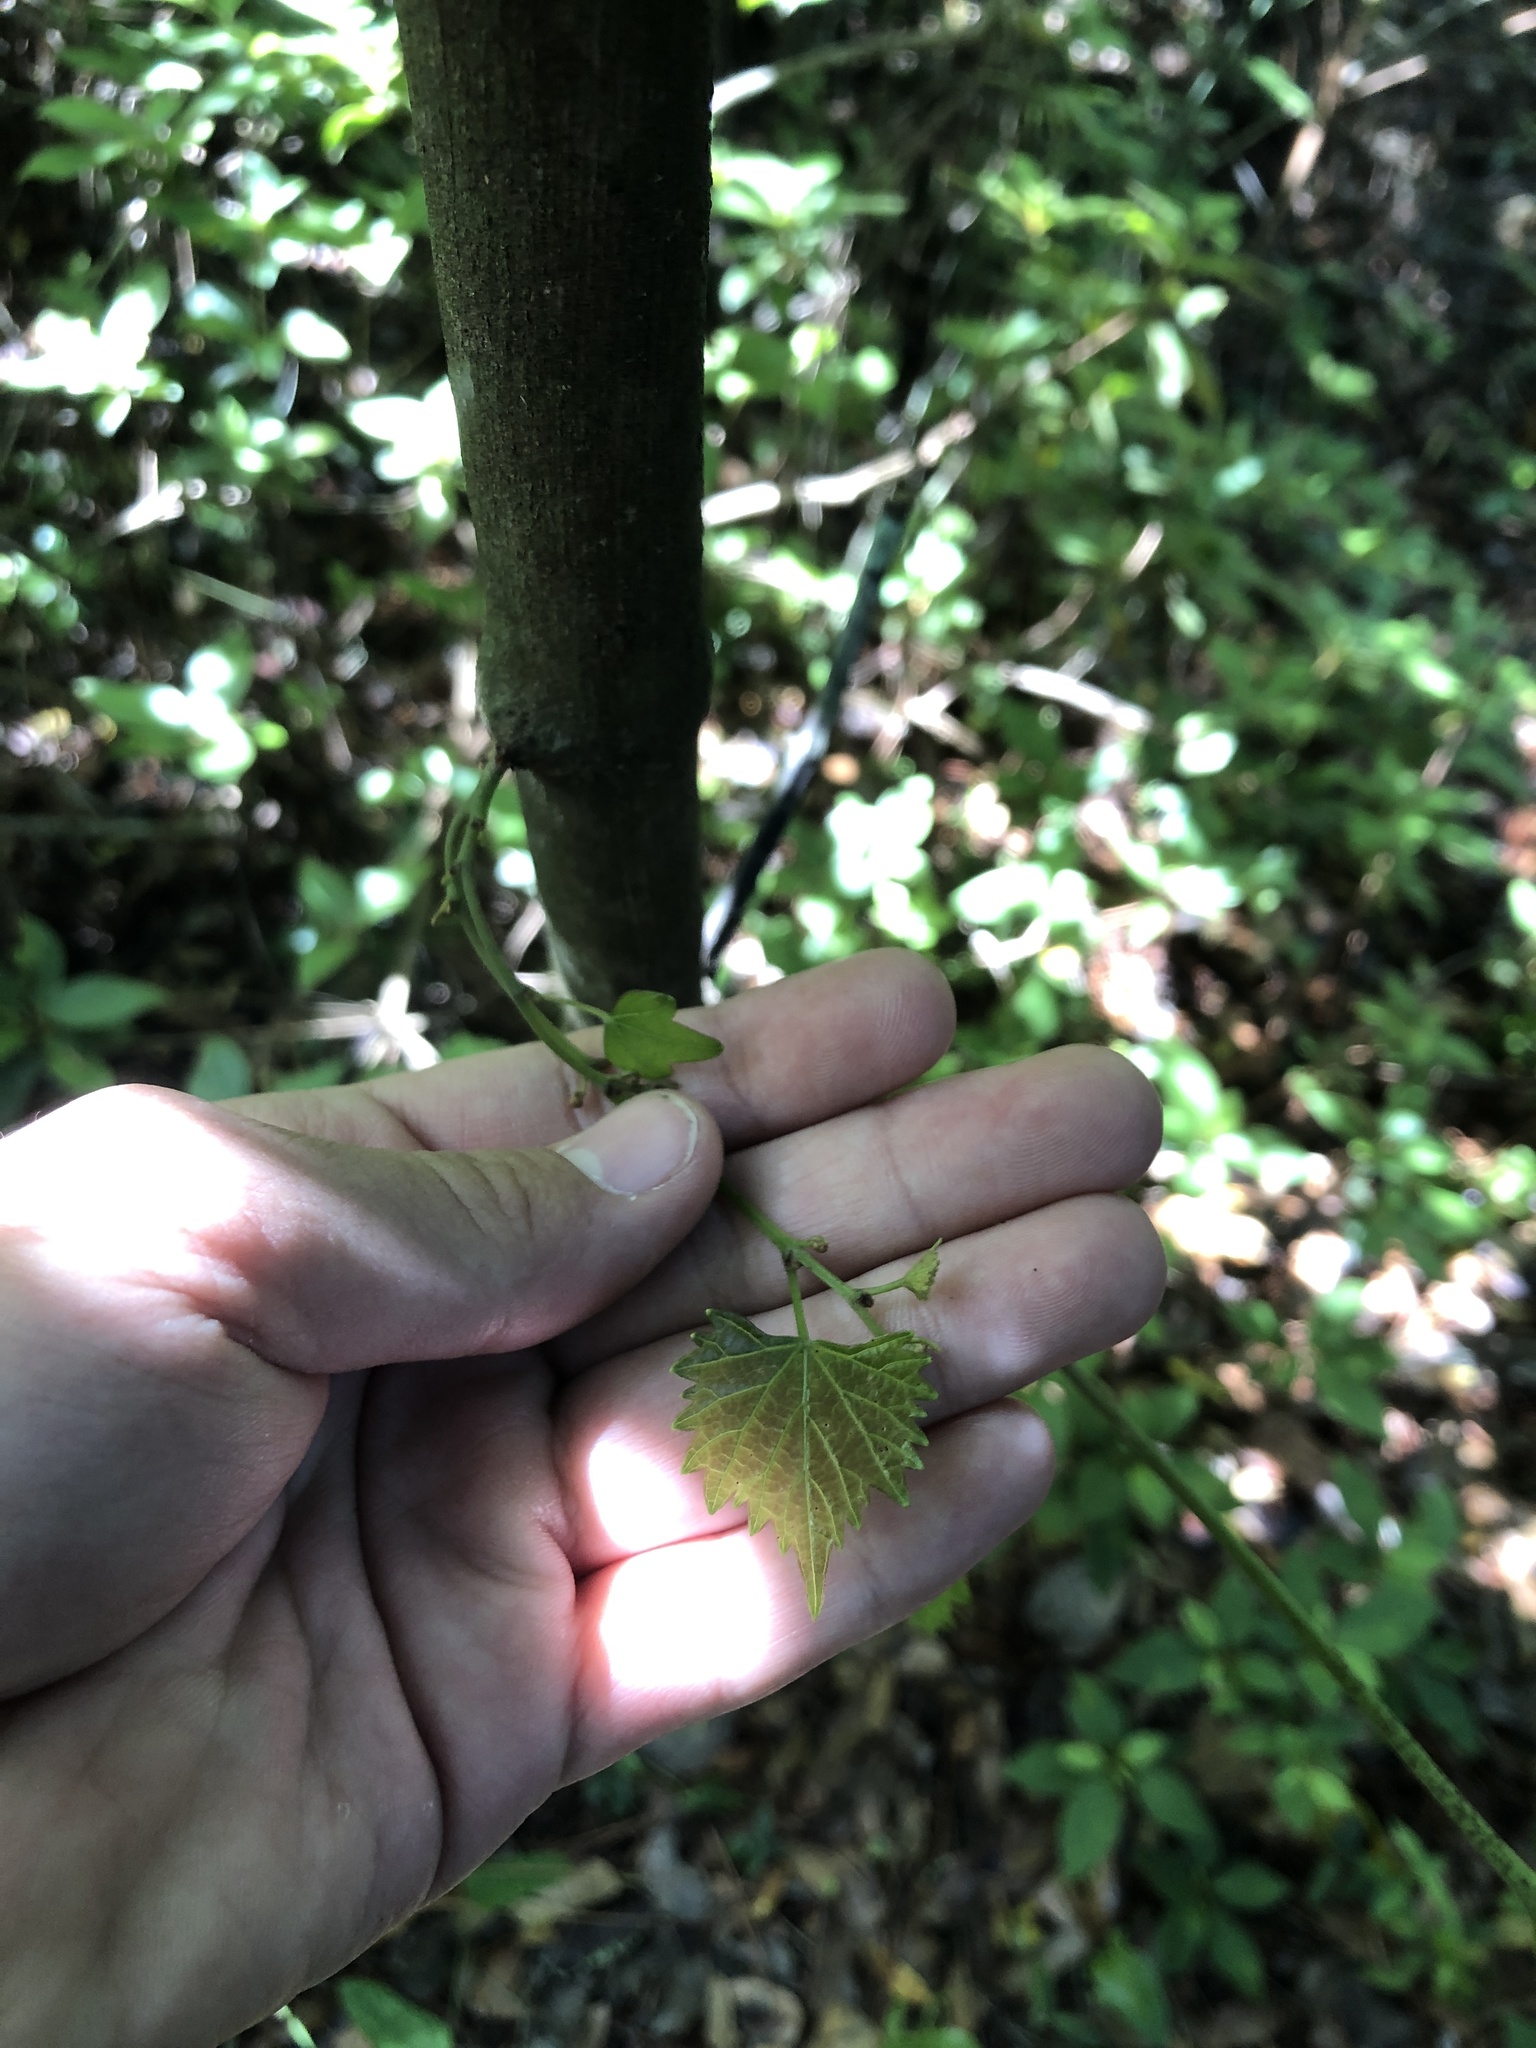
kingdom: Plantae
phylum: Tracheophyta
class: Magnoliopsida
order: Vitales
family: Vitaceae
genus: Vitis
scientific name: Vitis rotundifolia
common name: Muscadine grape
